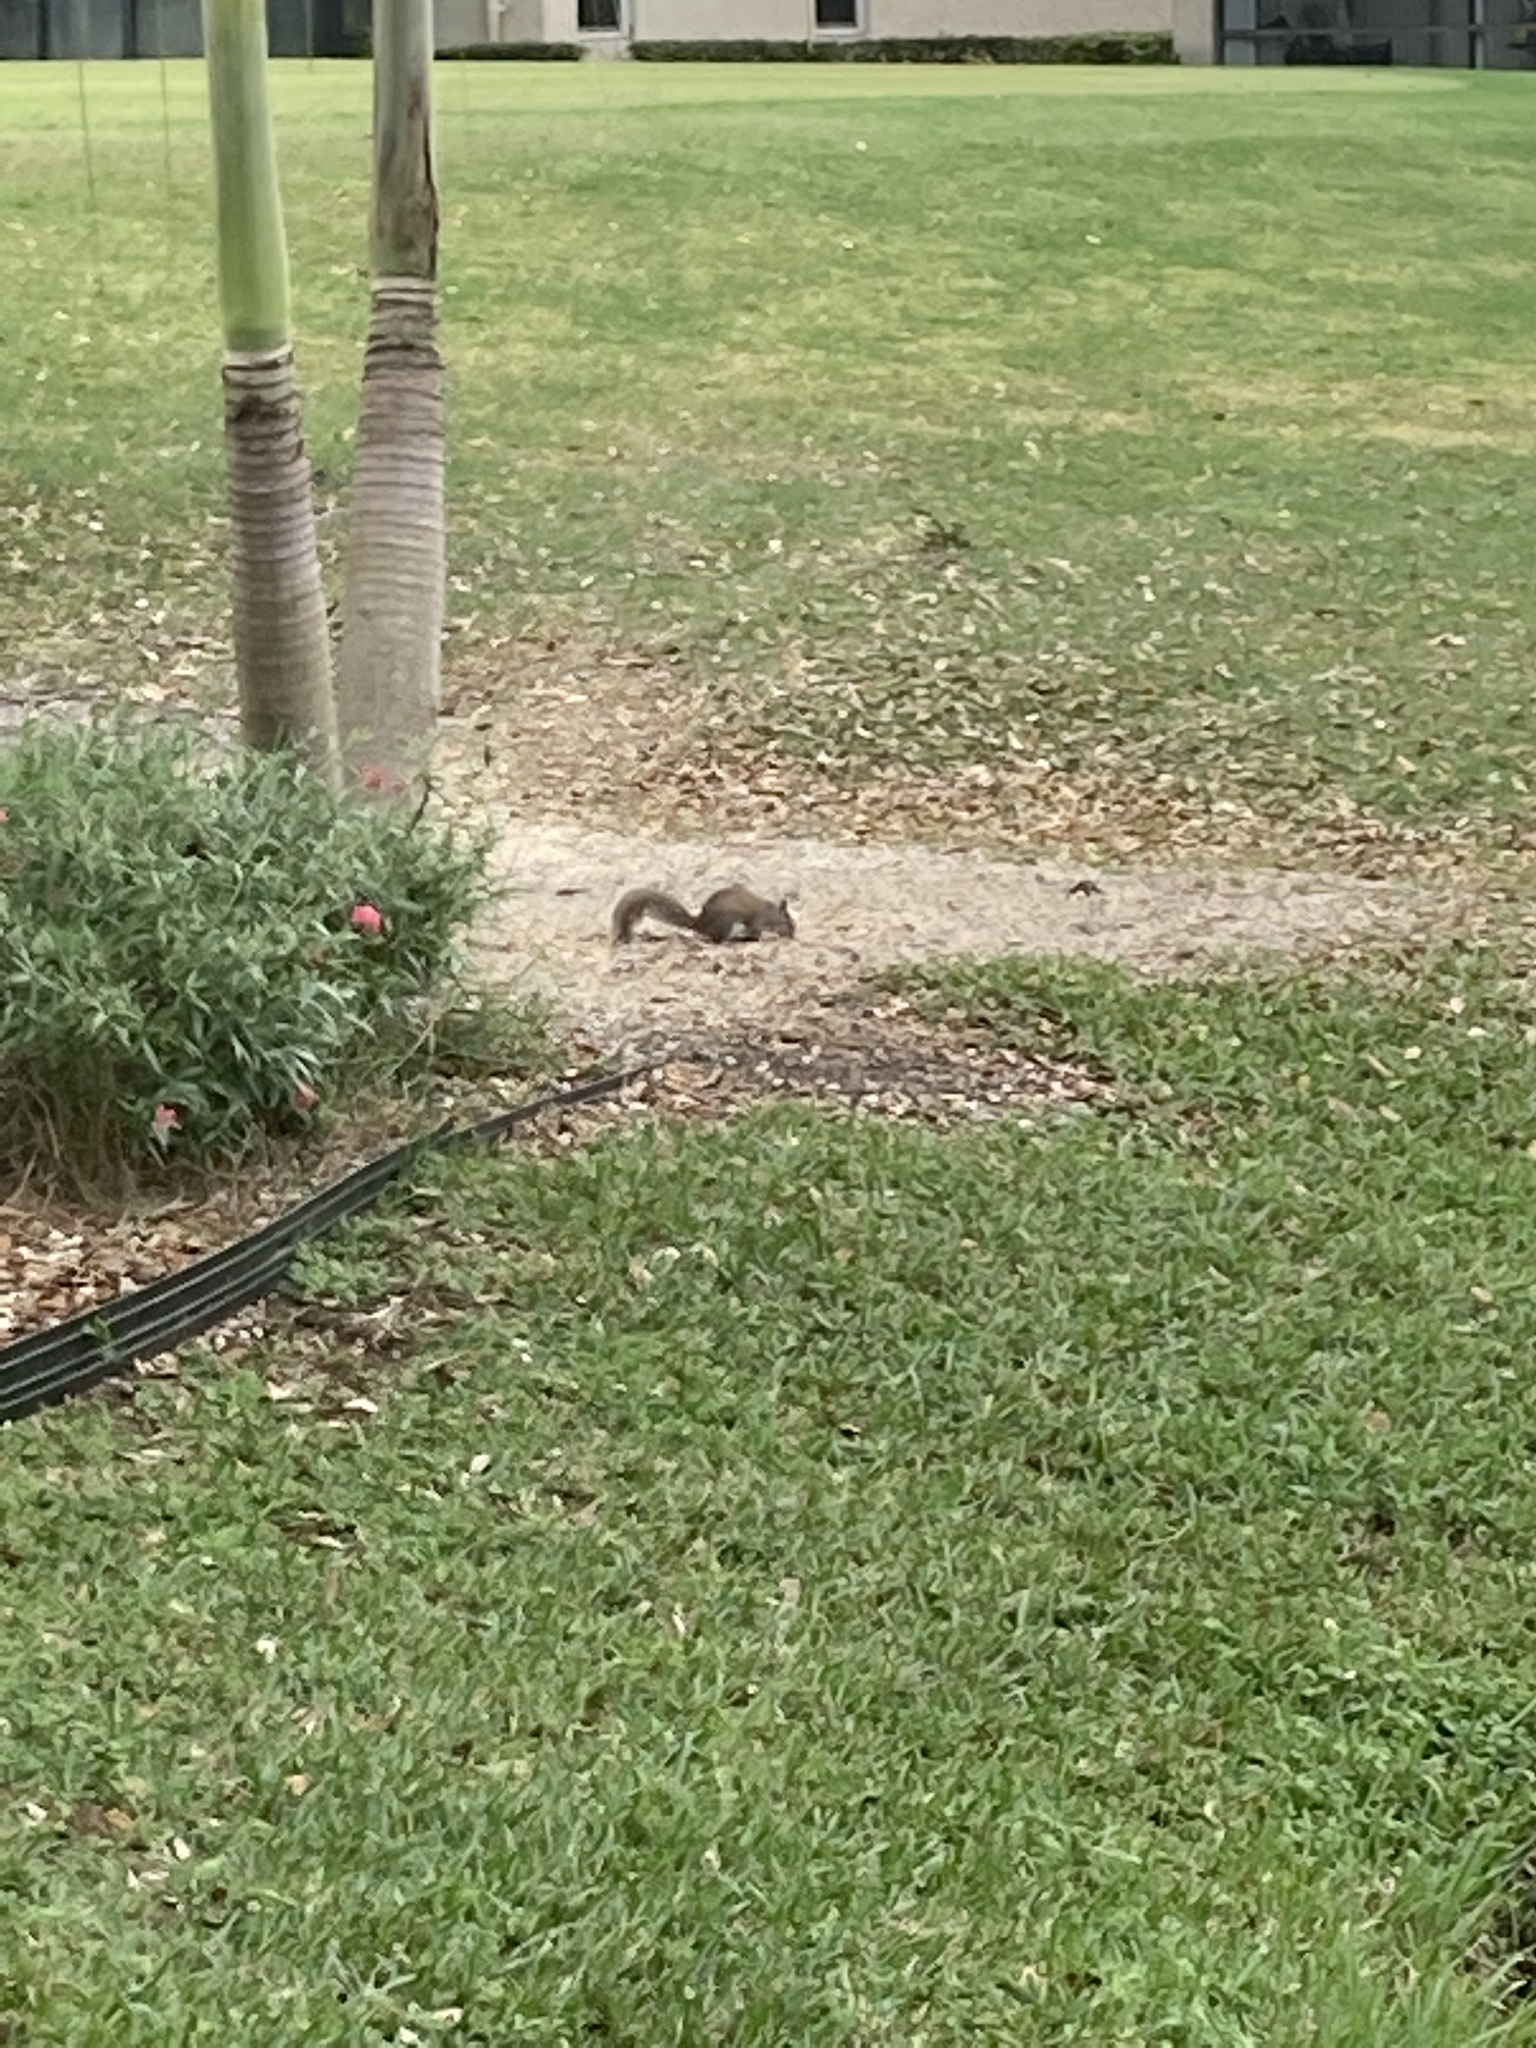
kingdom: Animalia
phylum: Chordata
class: Mammalia
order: Rodentia
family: Sciuridae
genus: Sciurus
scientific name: Sciurus carolinensis
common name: Eastern gray squirrel
